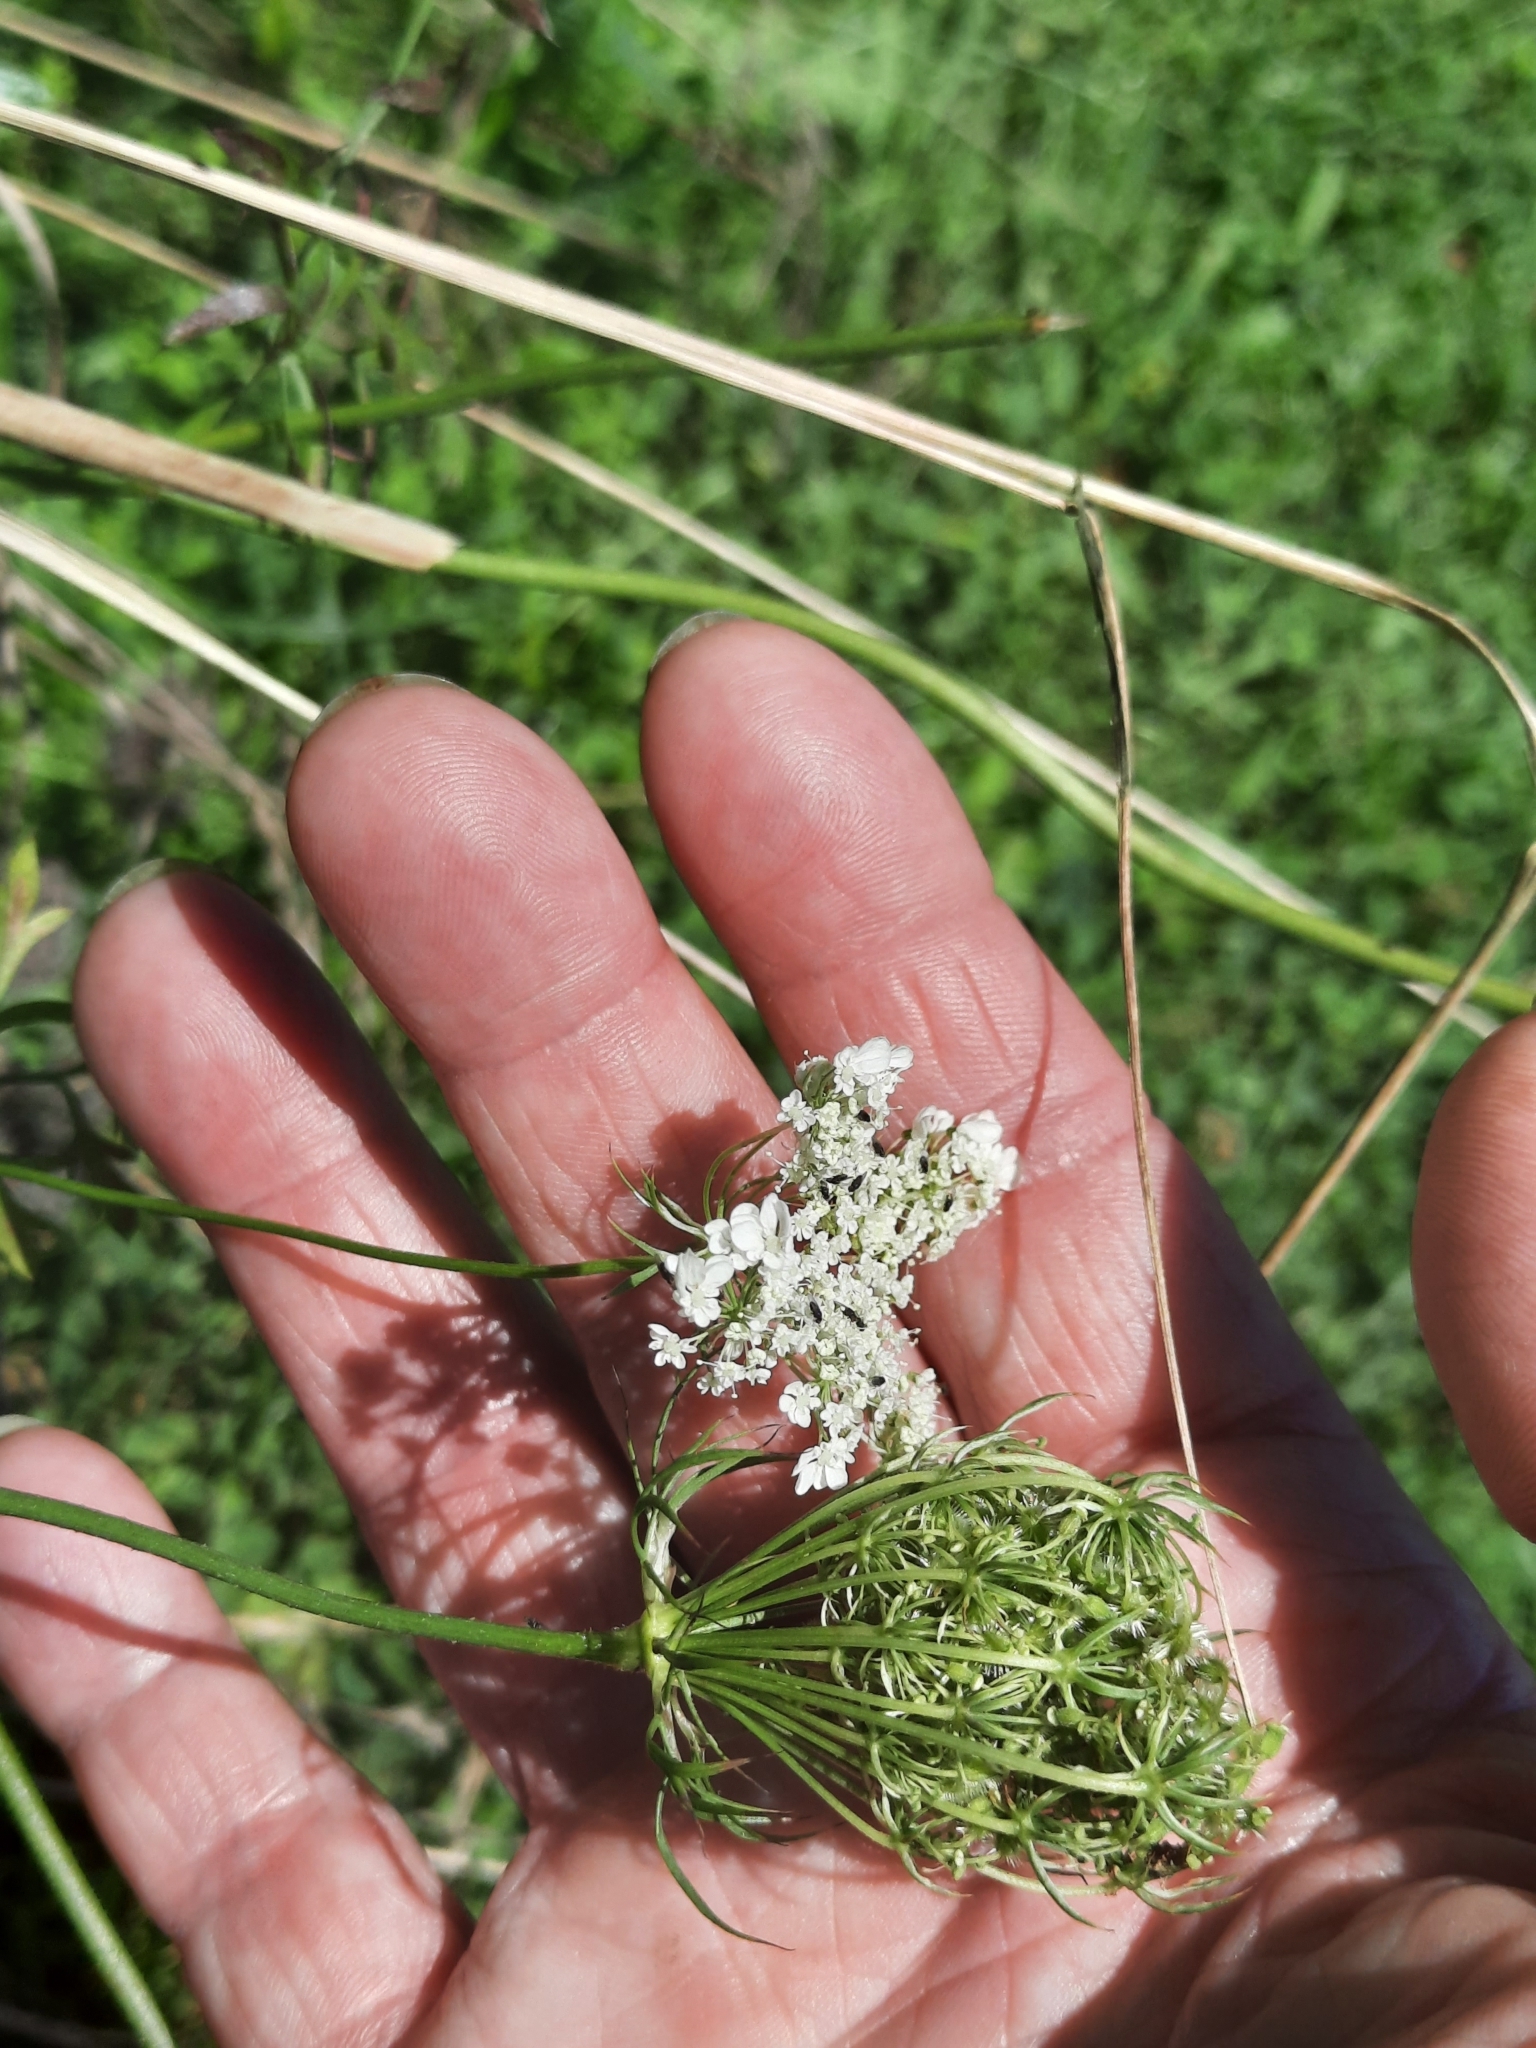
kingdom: Plantae
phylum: Tracheophyta
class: Magnoliopsida
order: Apiales
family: Apiaceae
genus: Daucus
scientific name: Daucus carota
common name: Wild carrot
